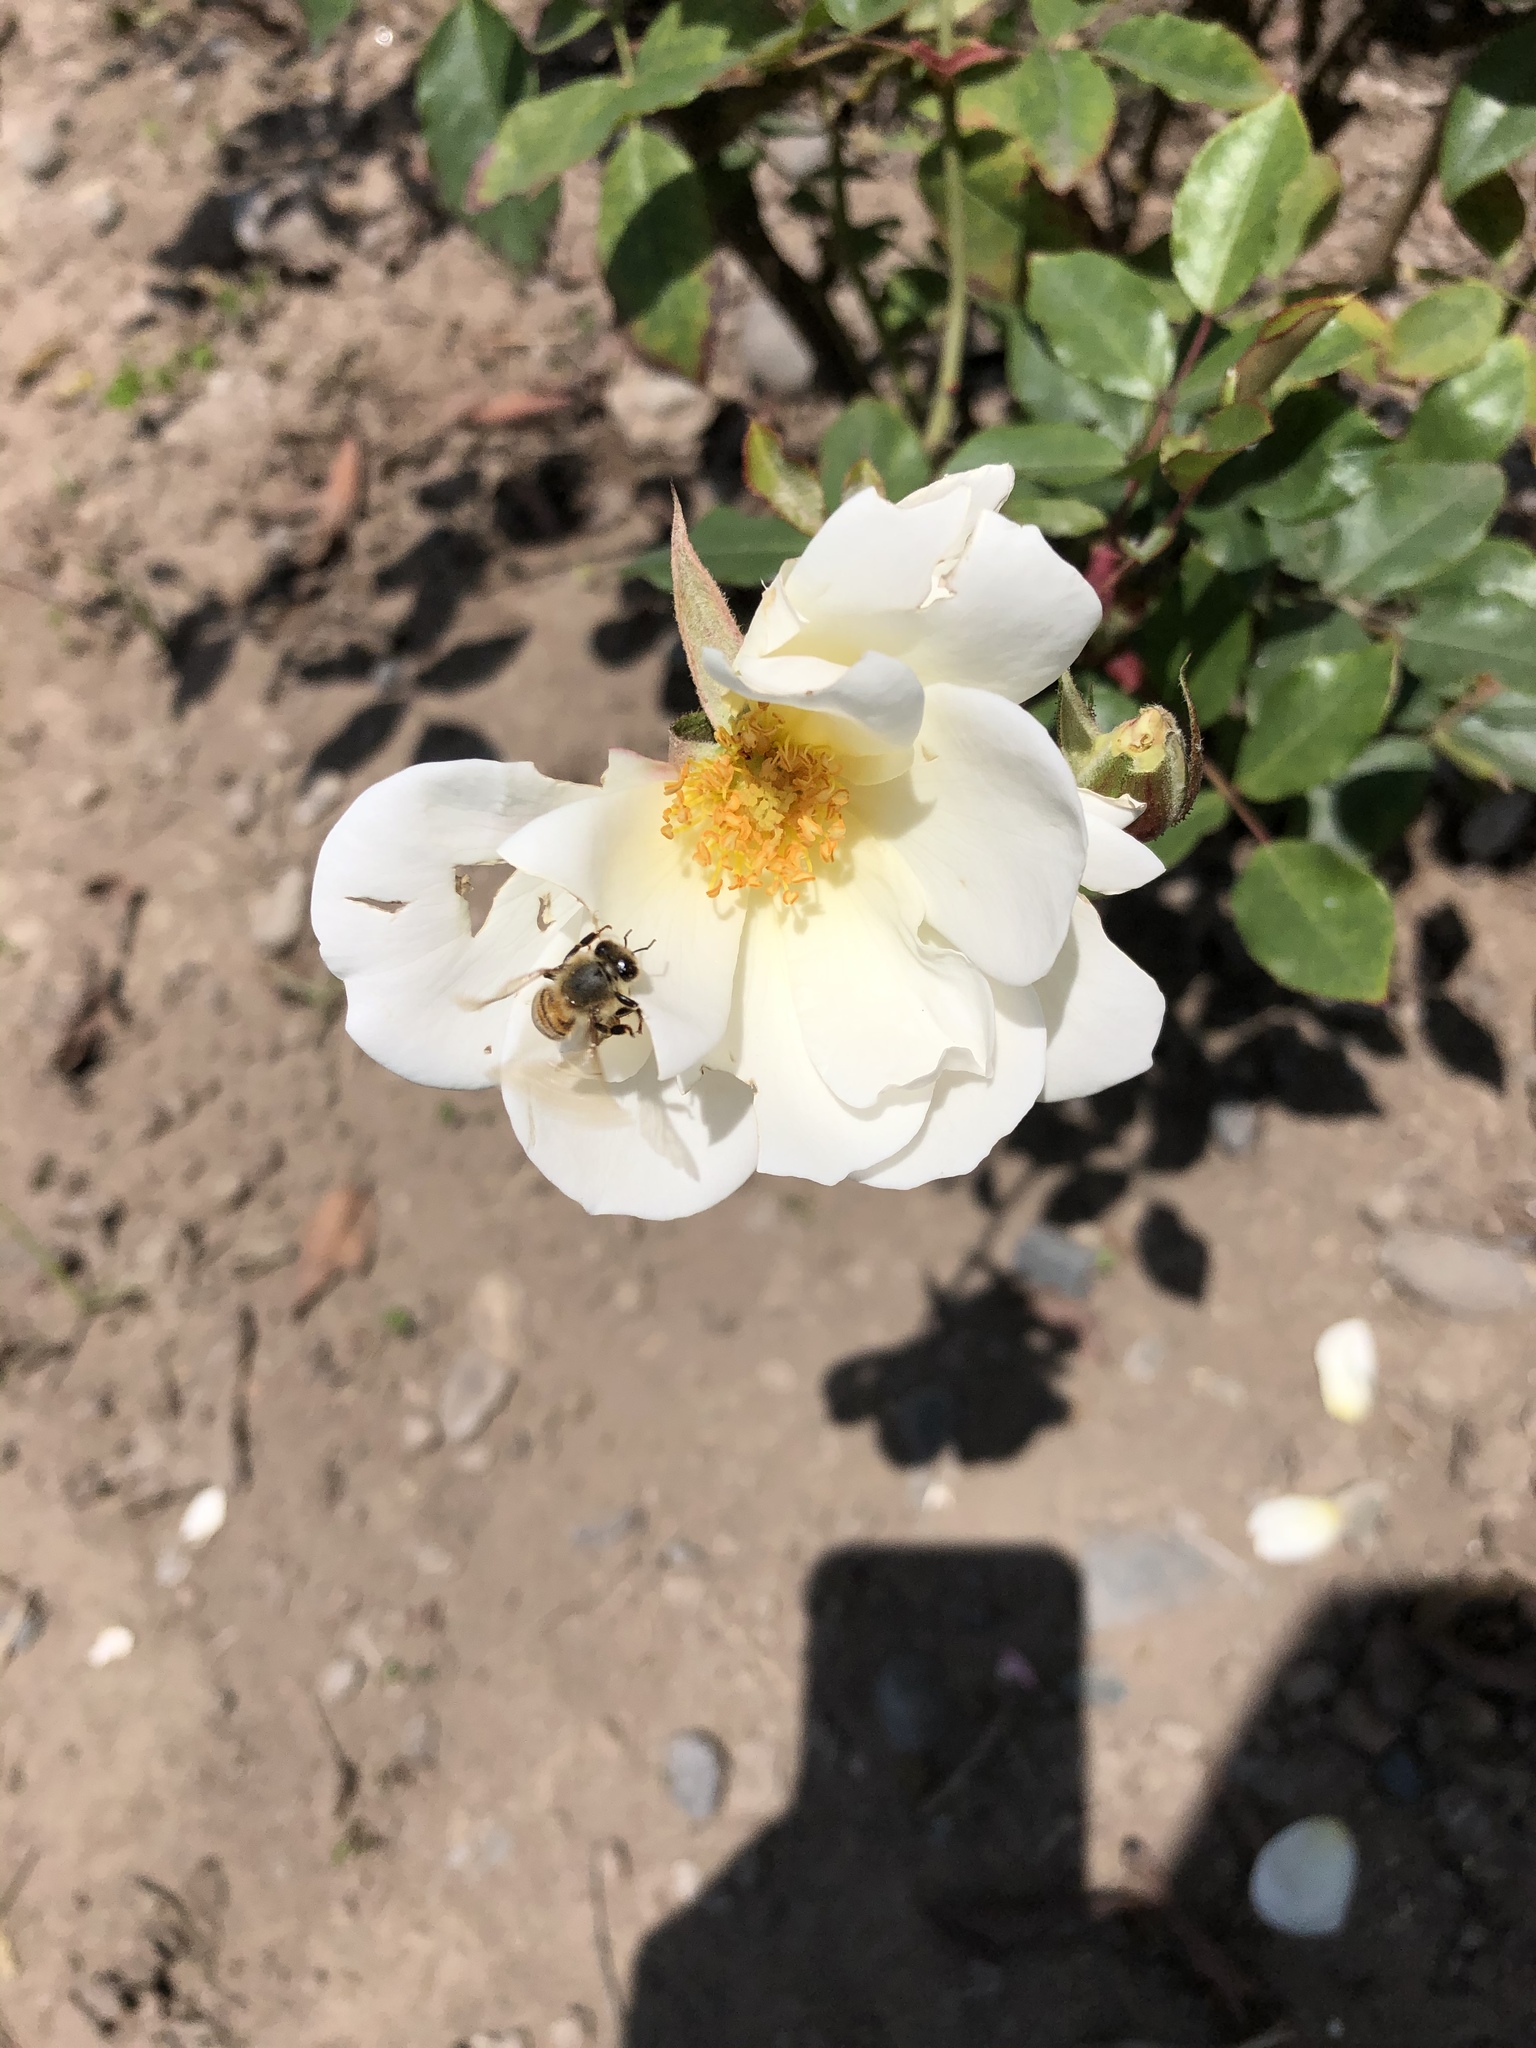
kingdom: Animalia
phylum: Arthropoda
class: Insecta
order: Hymenoptera
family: Apidae
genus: Apis
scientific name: Apis mellifera
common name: Honey bee
